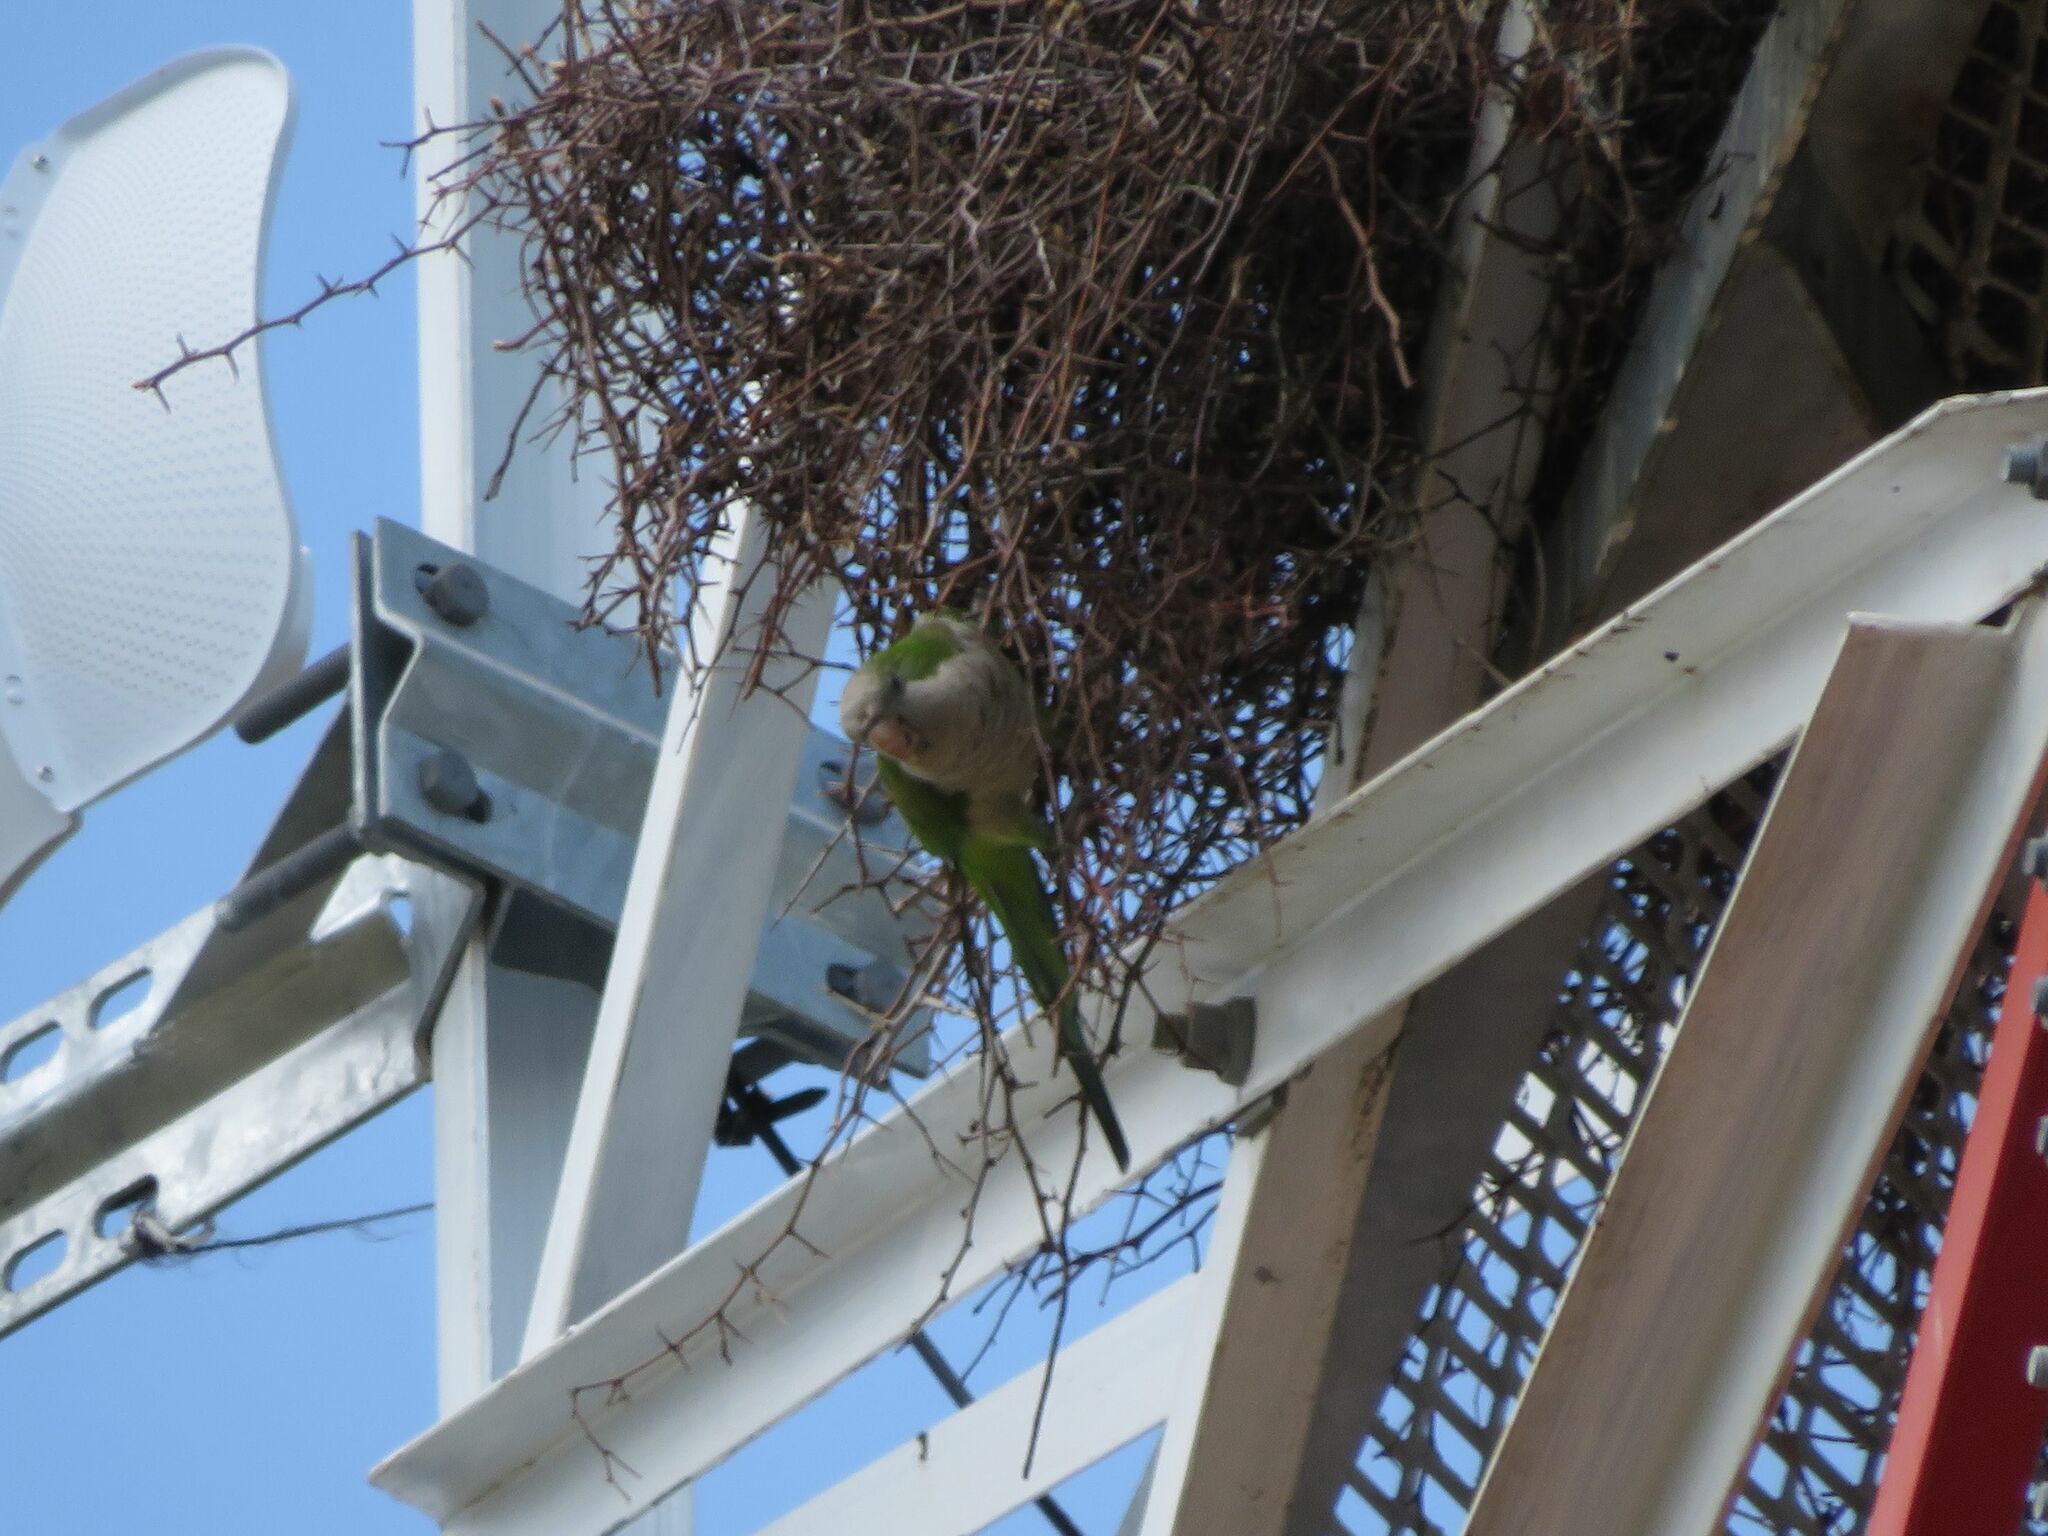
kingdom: Animalia
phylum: Chordata
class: Aves
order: Psittaciformes
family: Psittacidae
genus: Myiopsitta
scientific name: Myiopsitta monachus
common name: Monk parakeet
